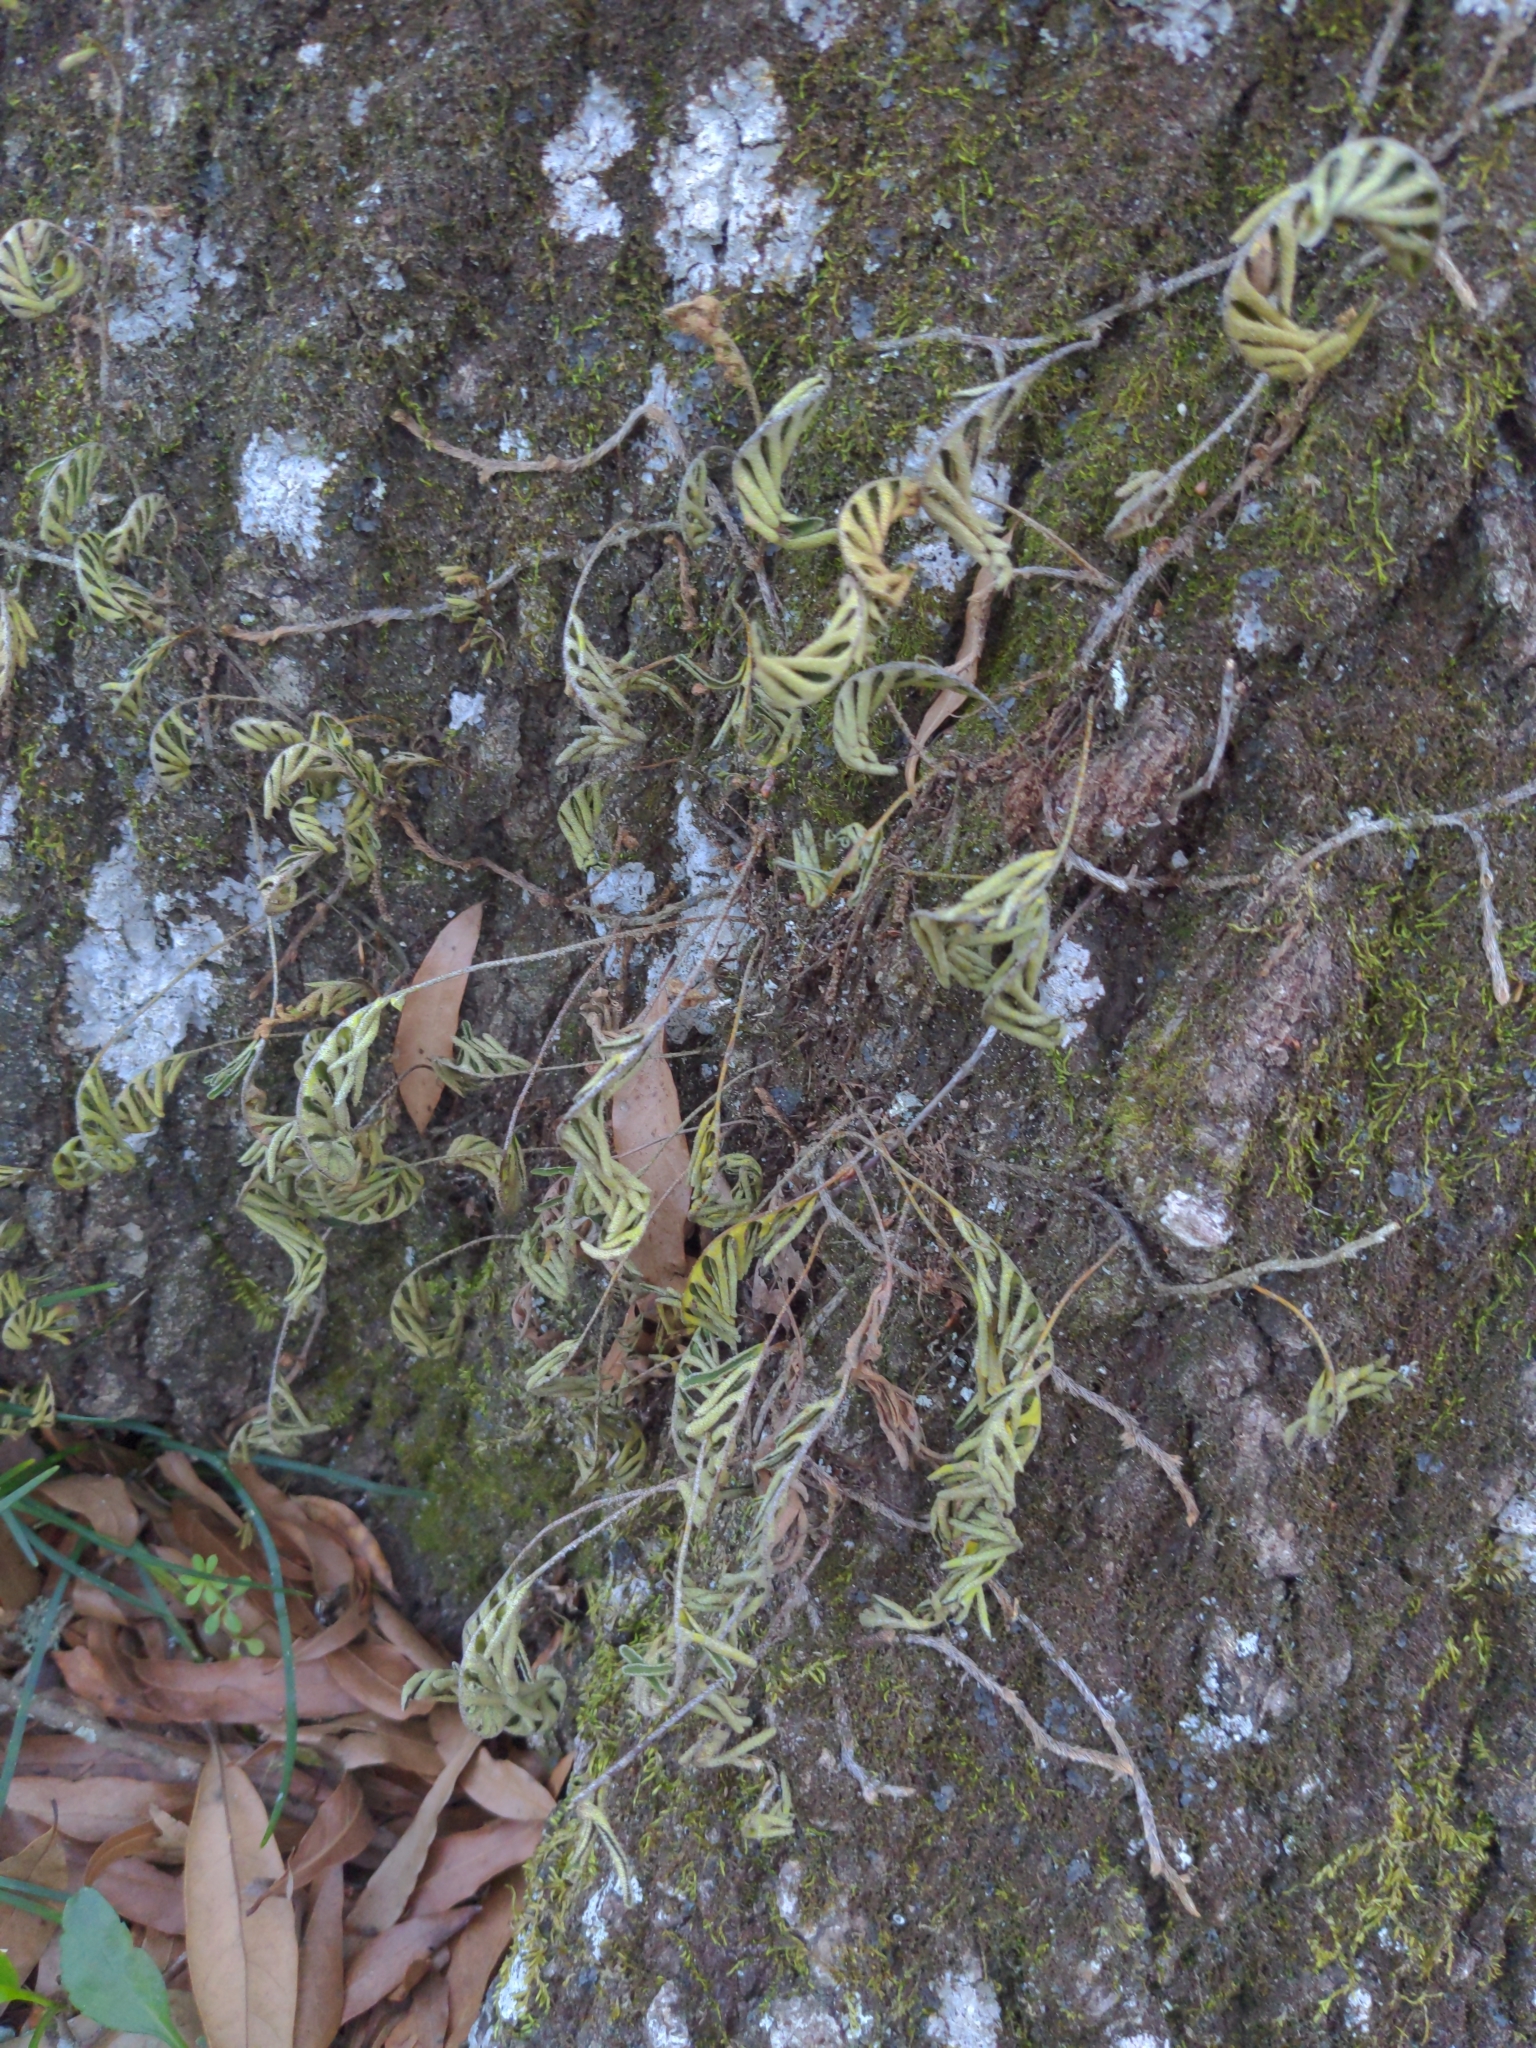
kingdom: Plantae
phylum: Tracheophyta
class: Polypodiopsida
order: Polypodiales
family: Polypodiaceae
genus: Pleopeltis
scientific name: Pleopeltis michauxiana
